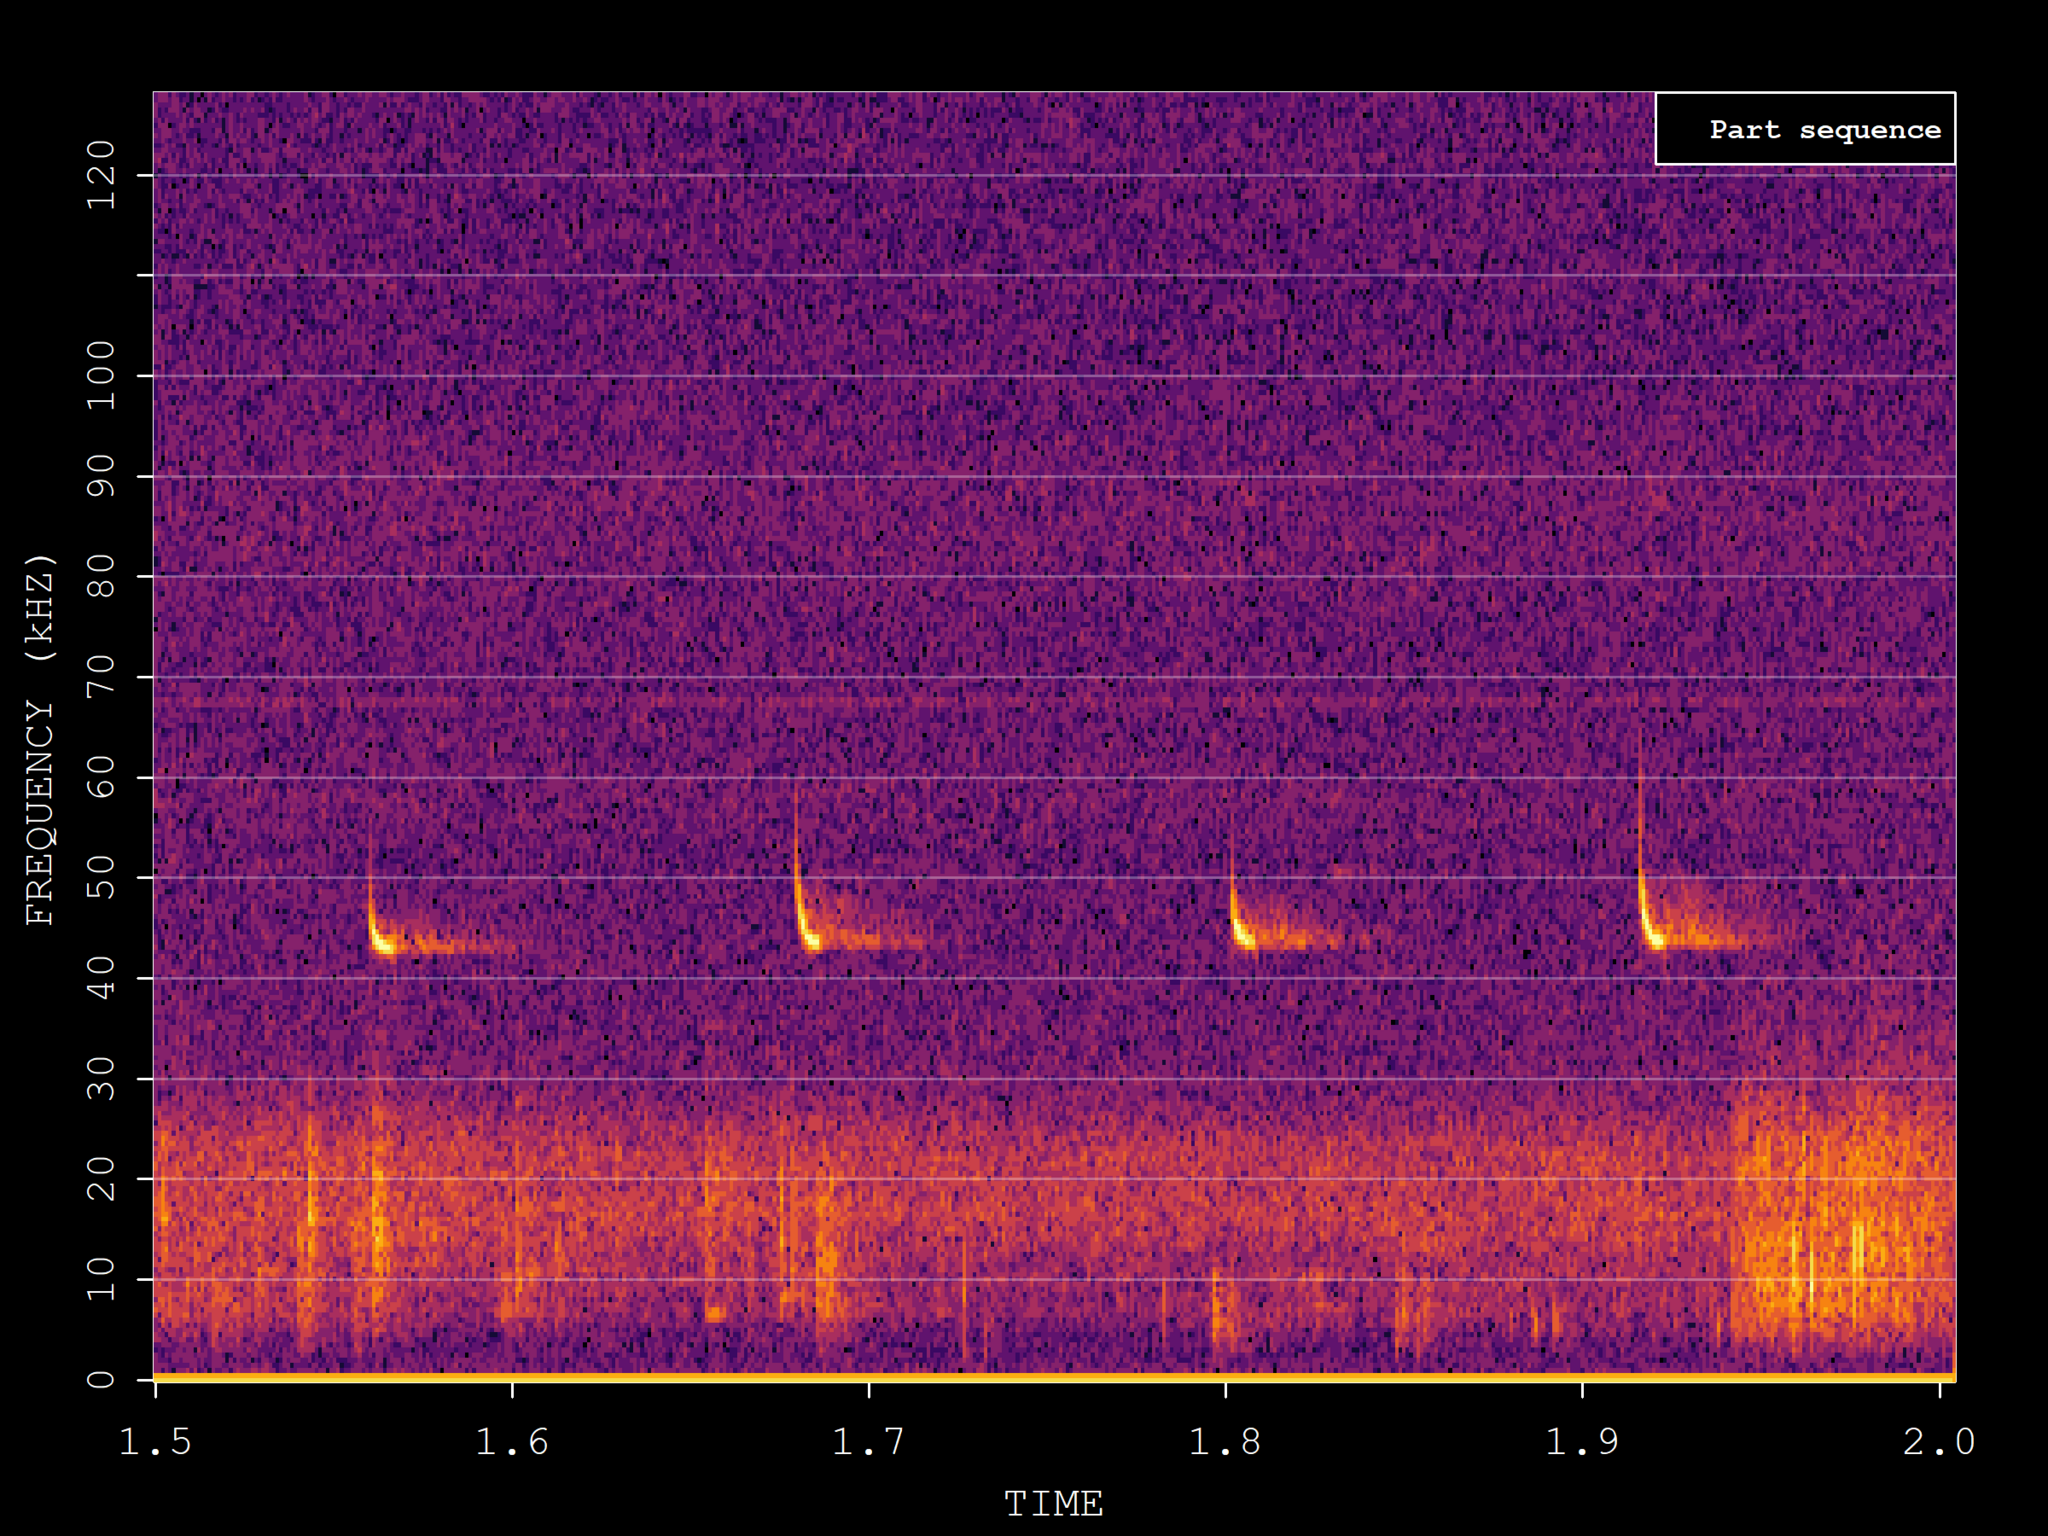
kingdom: Animalia
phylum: Chordata
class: Mammalia
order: Chiroptera
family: Vespertilionidae
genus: Pipistrellus
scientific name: Pipistrellus pipistrellus
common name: Common pipistrelle
